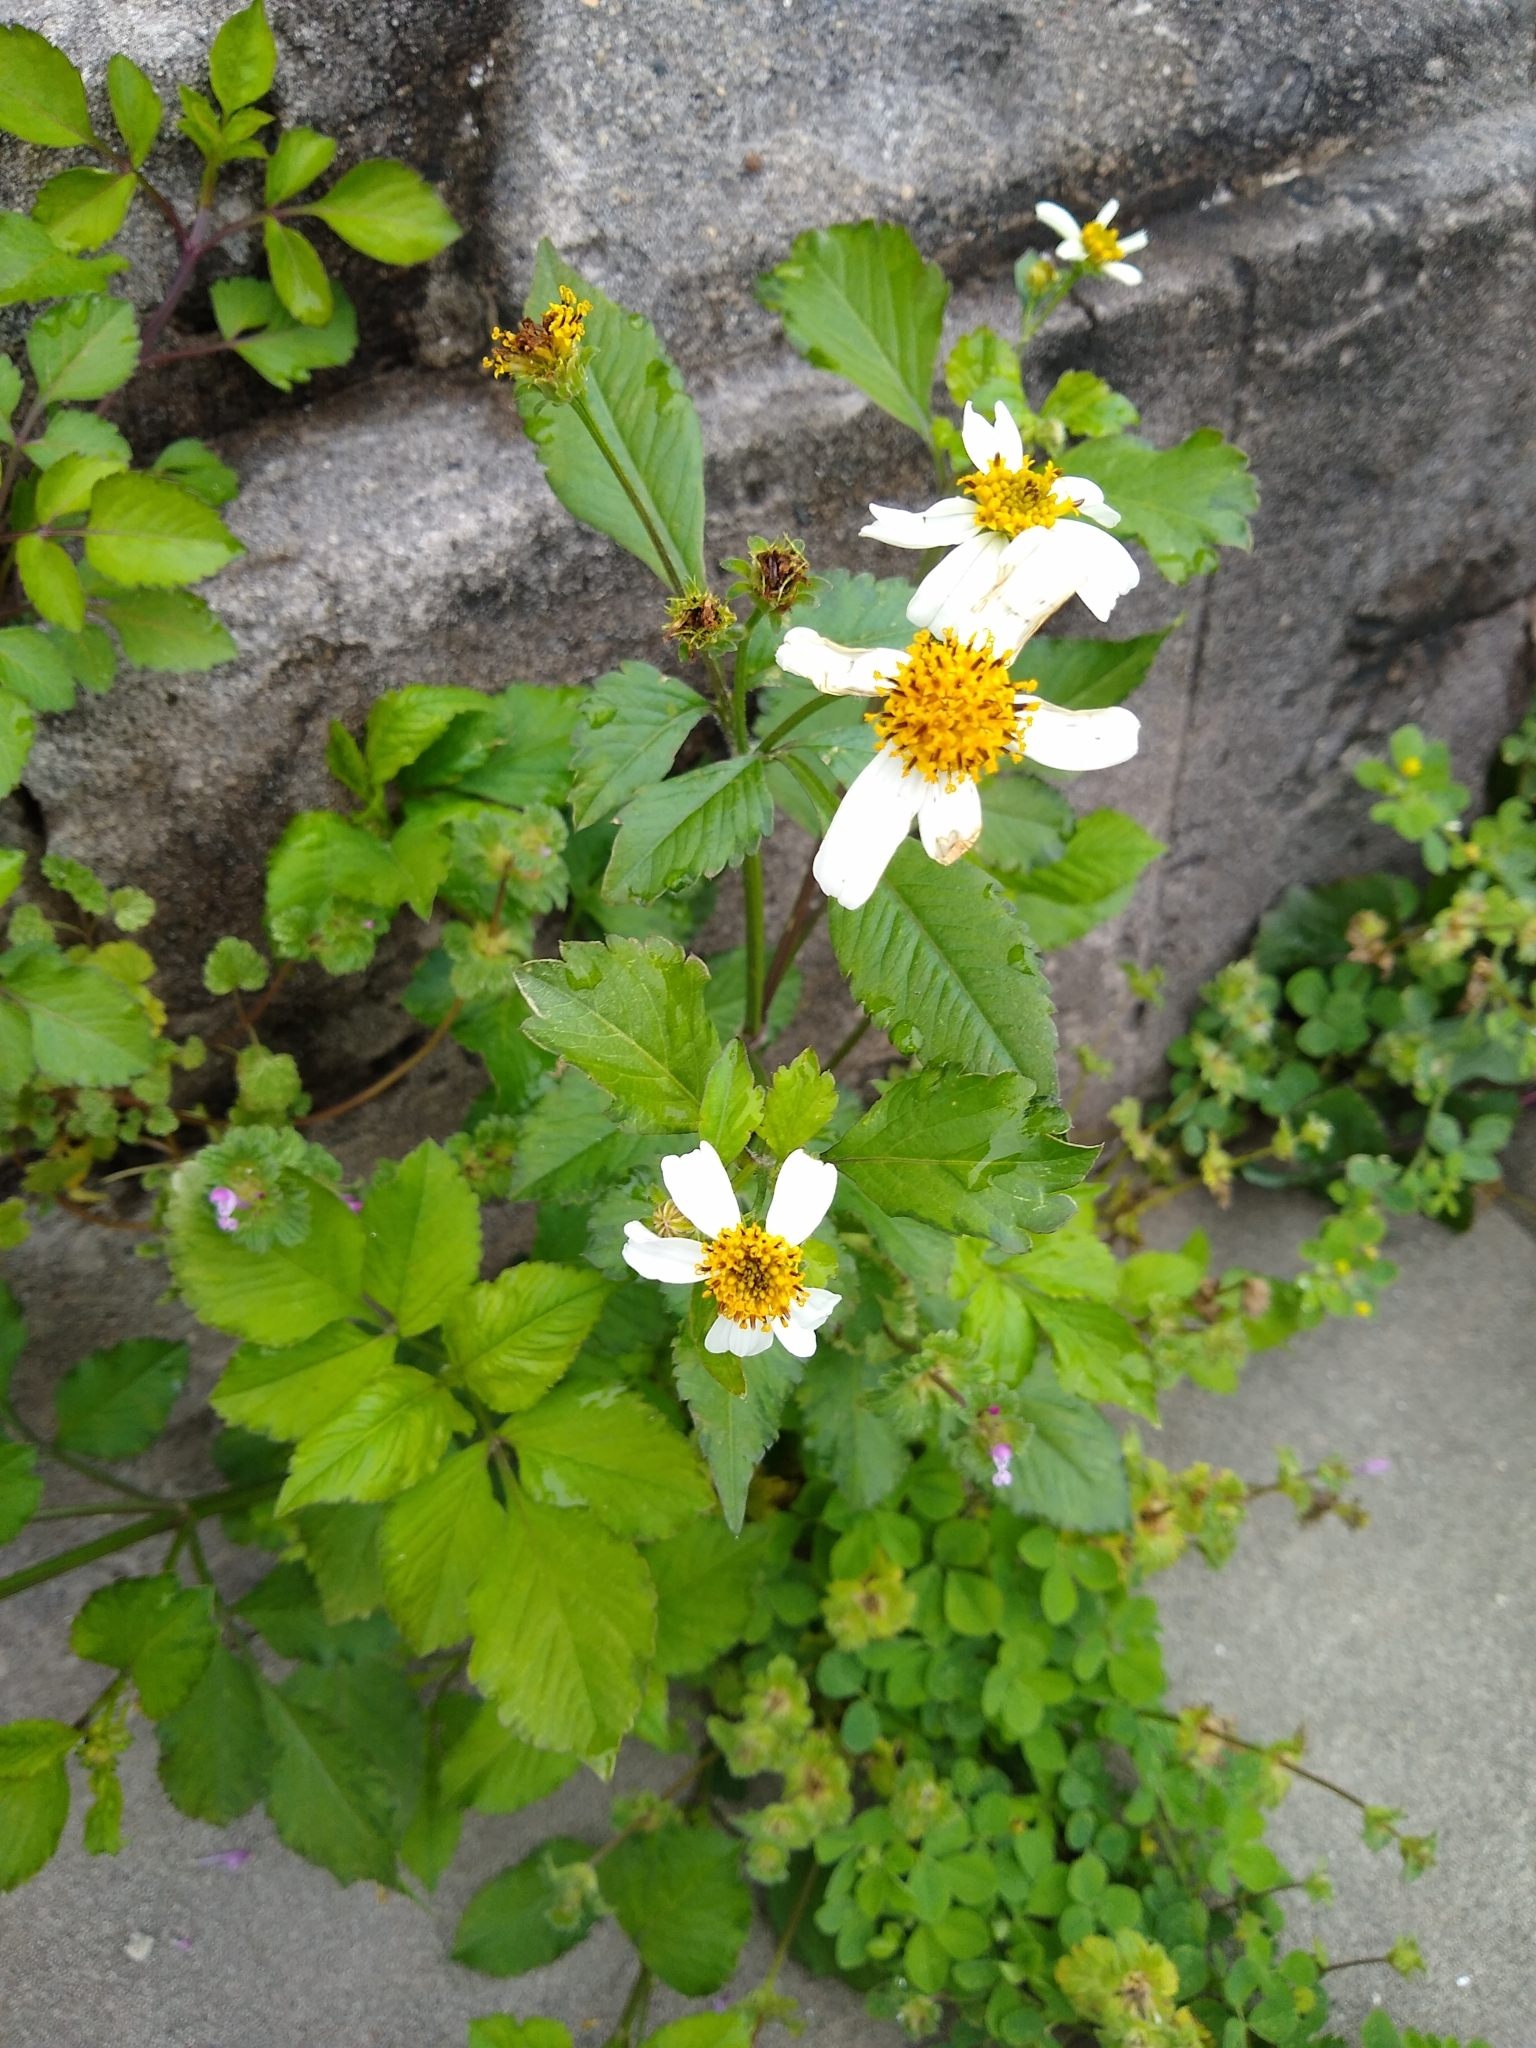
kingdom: Plantae
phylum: Tracheophyta
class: Magnoliopsida
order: Asterales
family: Asteraceae
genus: Bidens
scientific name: Bidens alba
